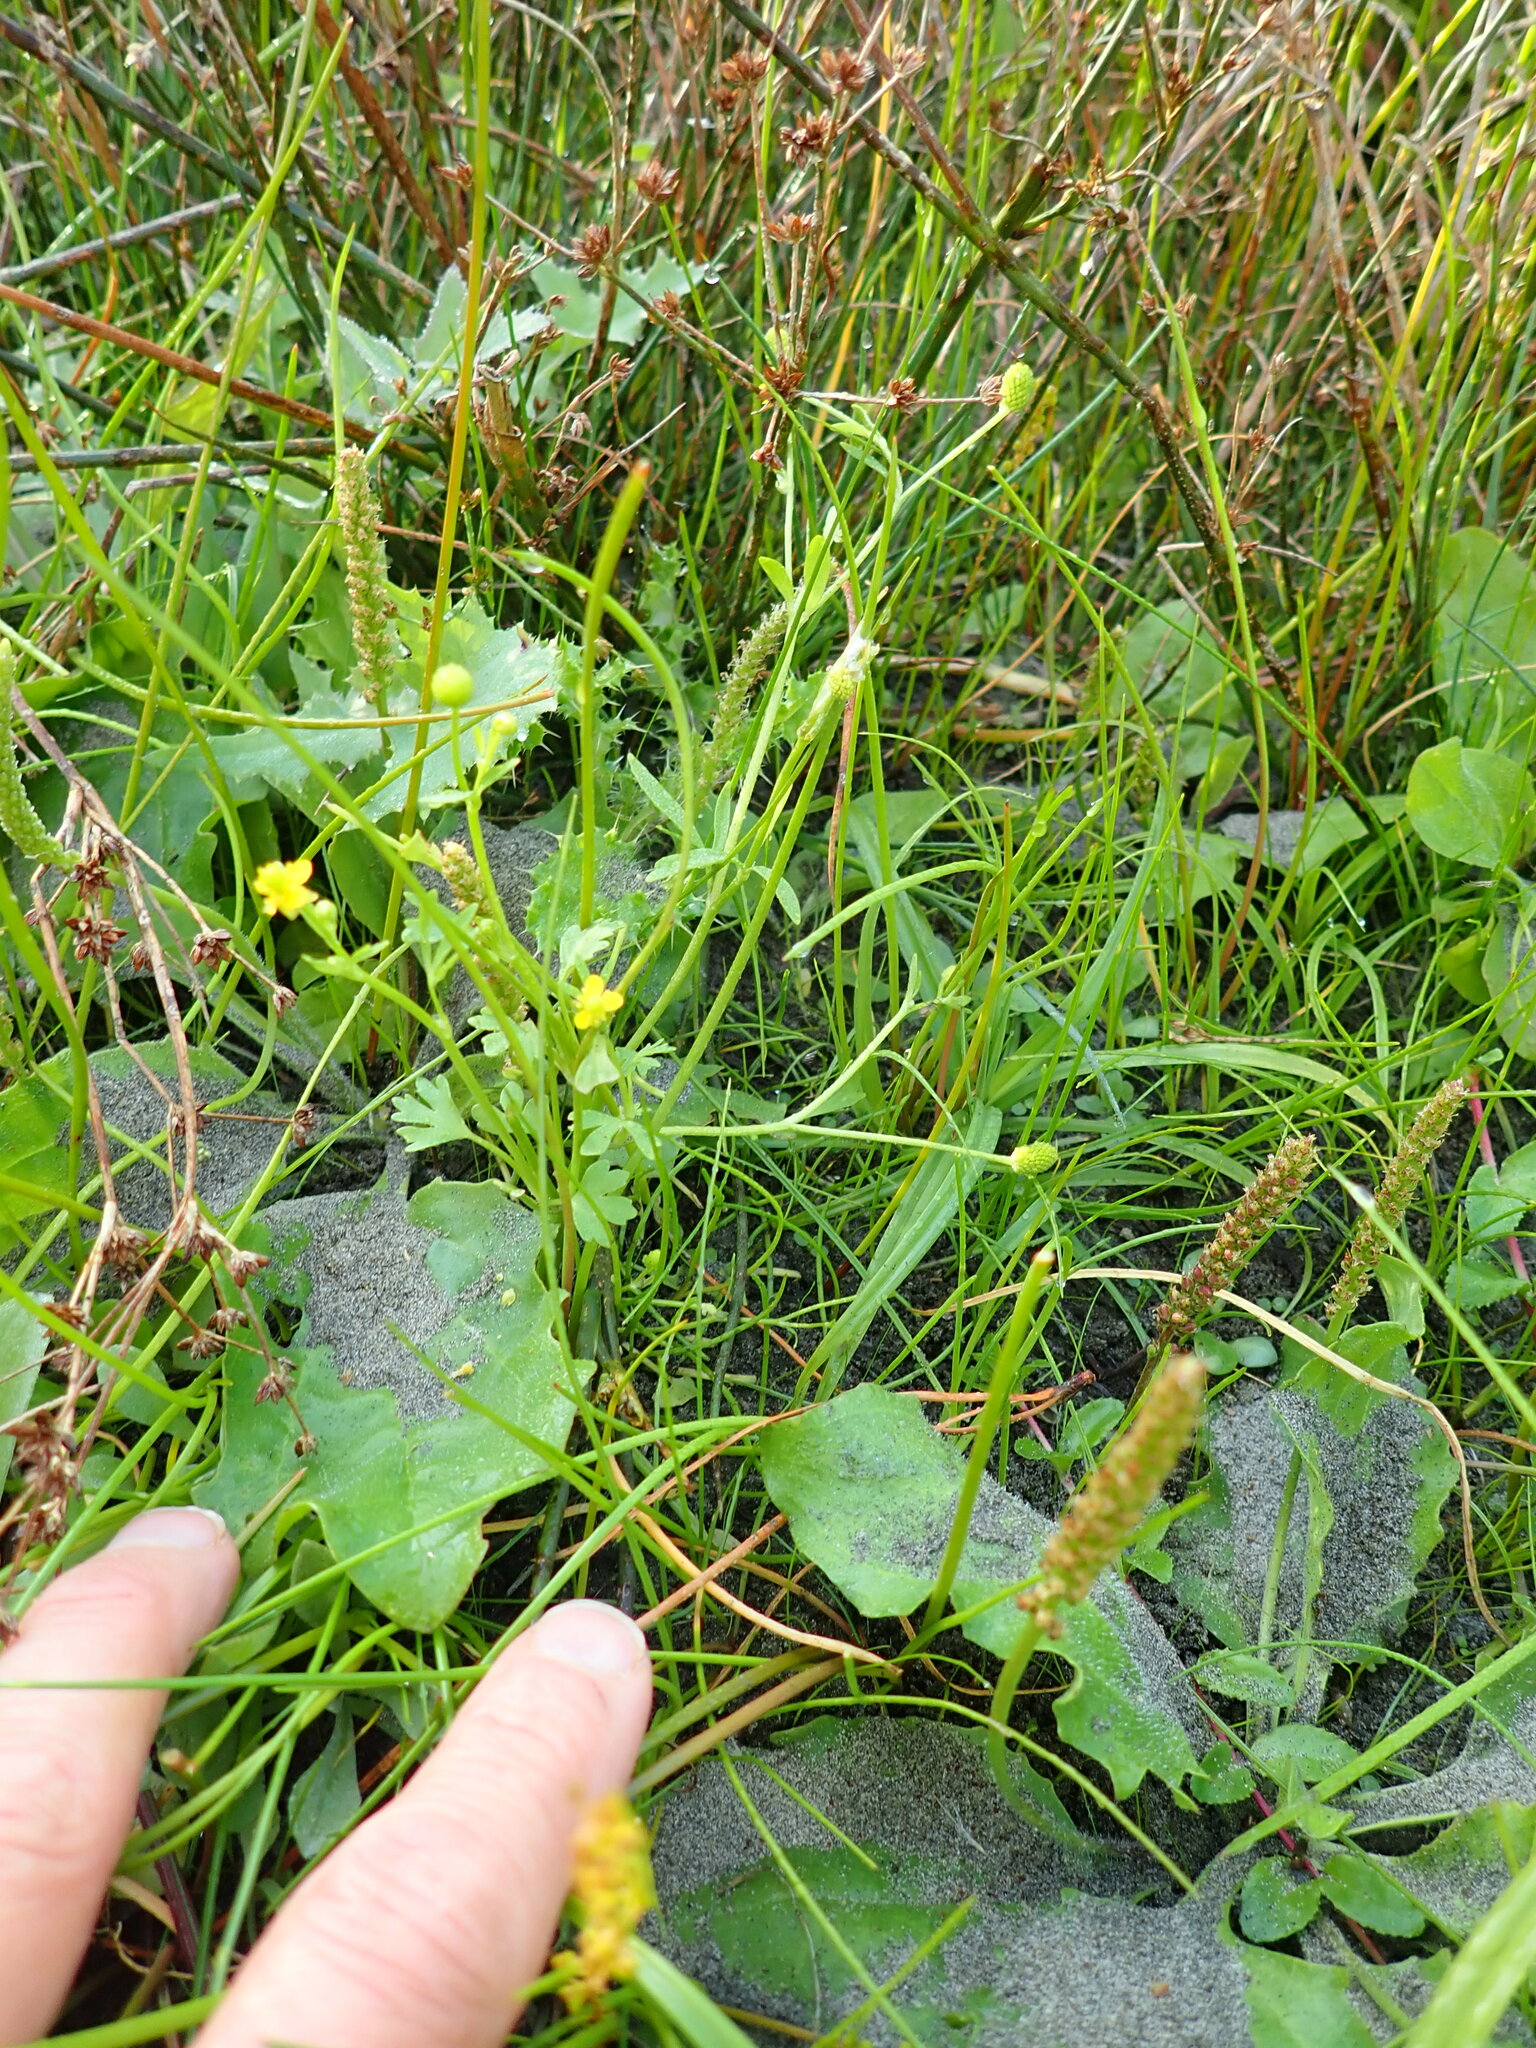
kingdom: Plantae
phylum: Tracheophyta
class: Magnoliopsida
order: Ranunculales
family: Ranunculaceae
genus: Ranunculus
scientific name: Ranunculus sceleratus
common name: Celery-leaved buttercup
